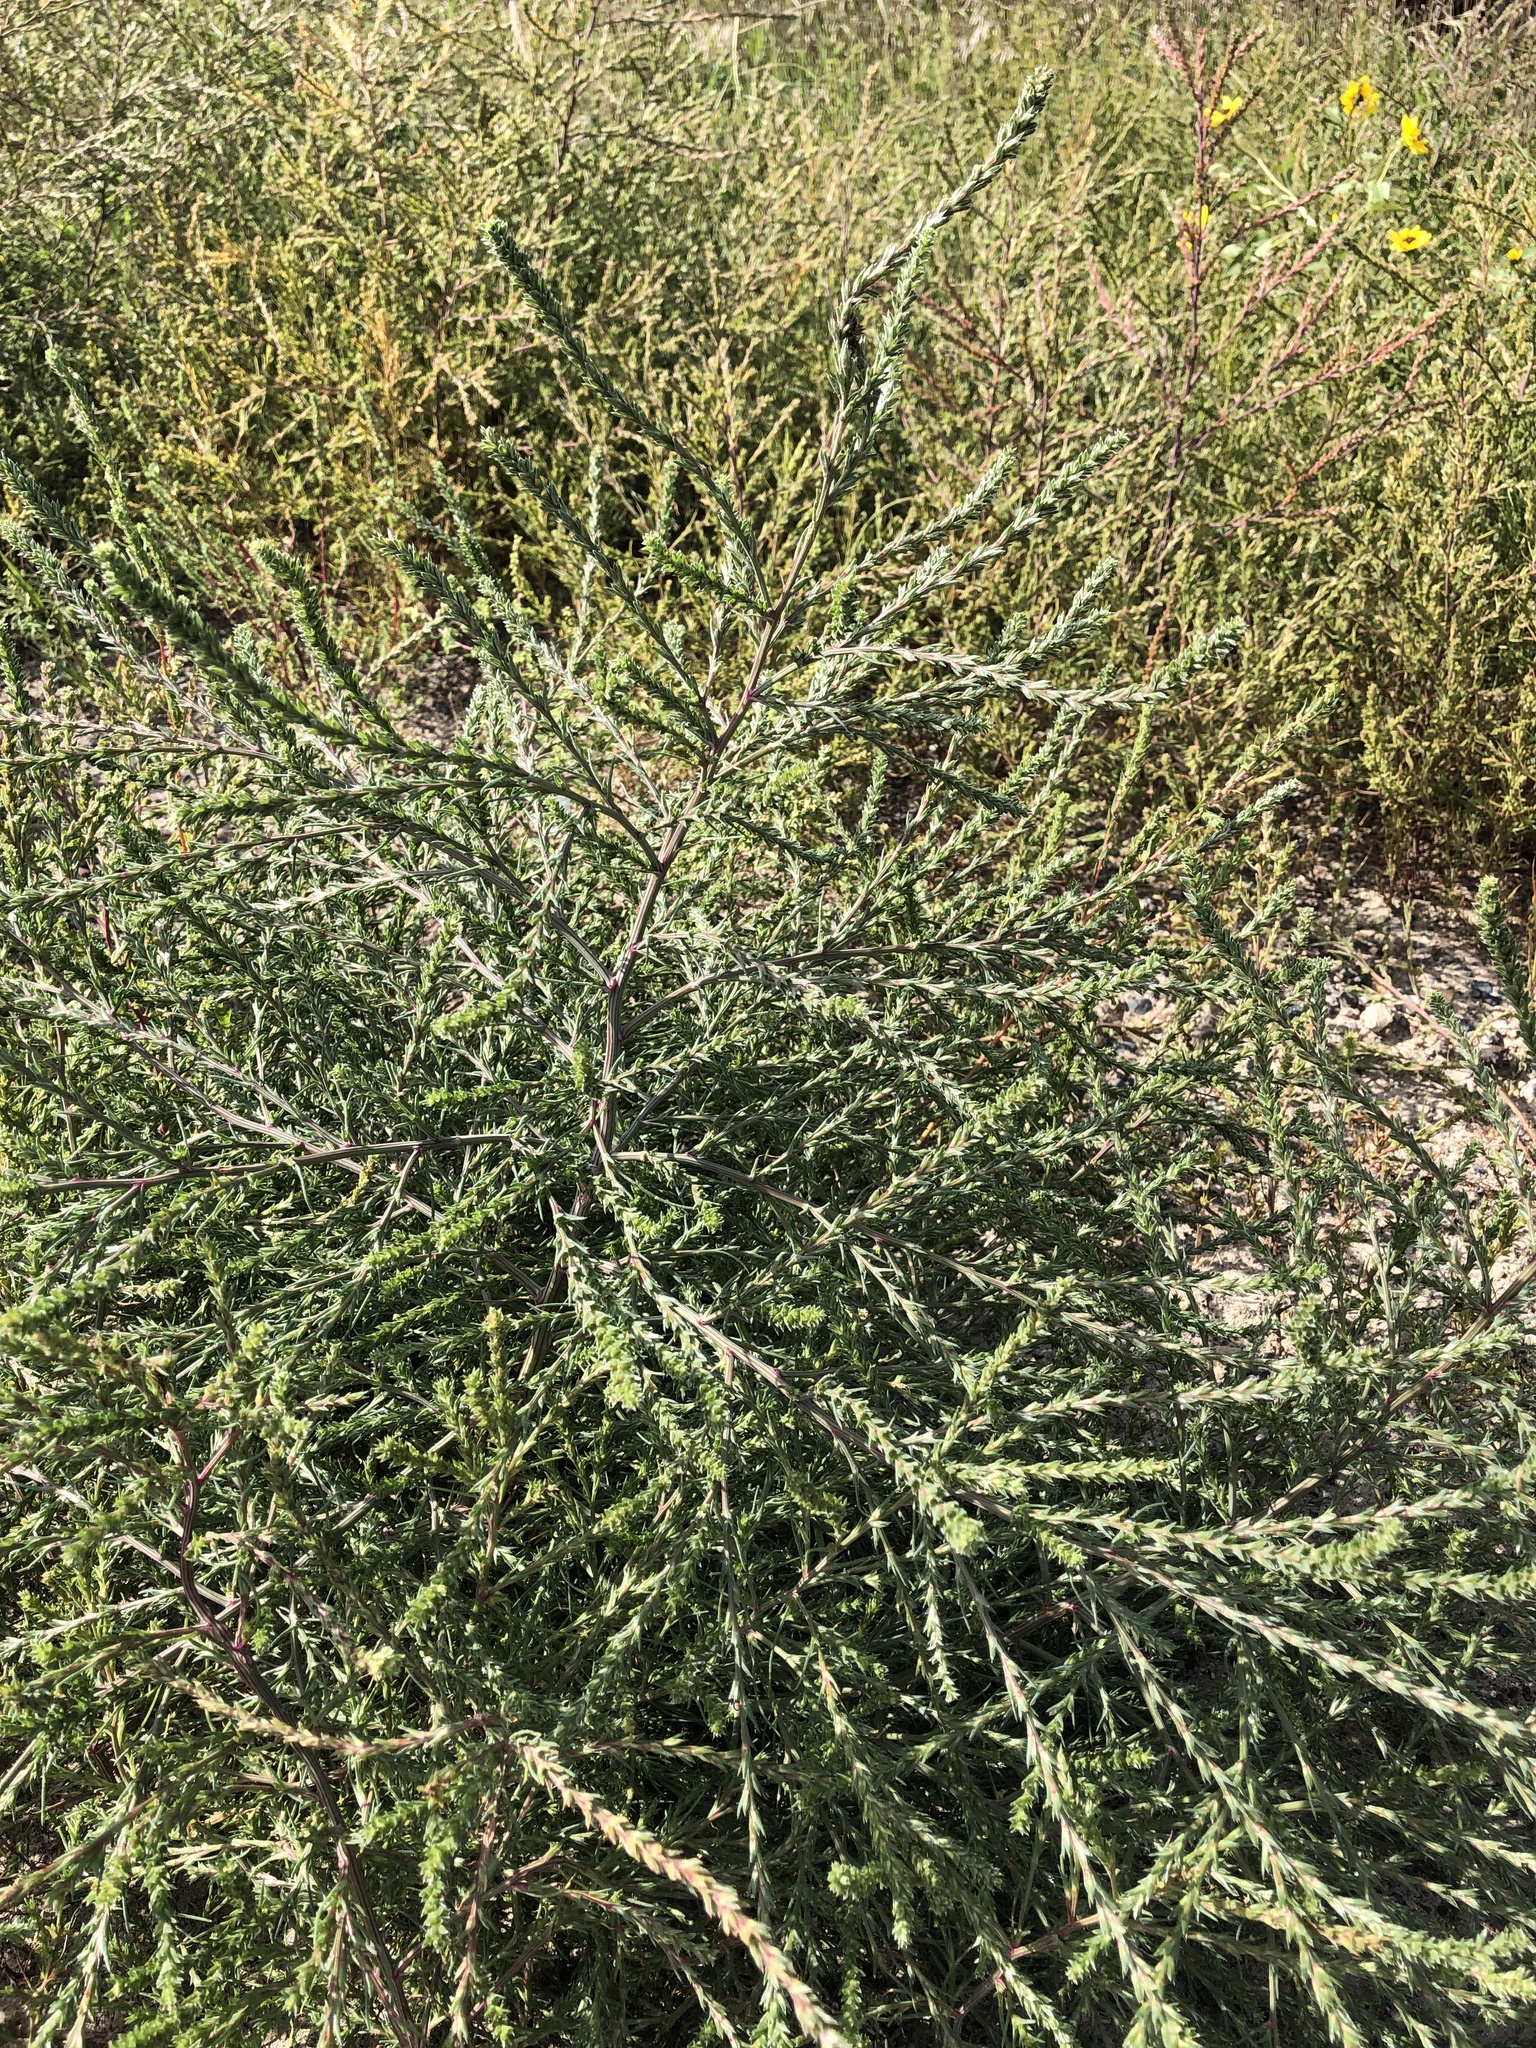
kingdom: Plantae
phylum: Tracheophyta
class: Magnoliopsida
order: Caryophyllales
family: Amaranthaceae
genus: Salsola
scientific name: Salsola tragus
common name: Prickly russian thistle
